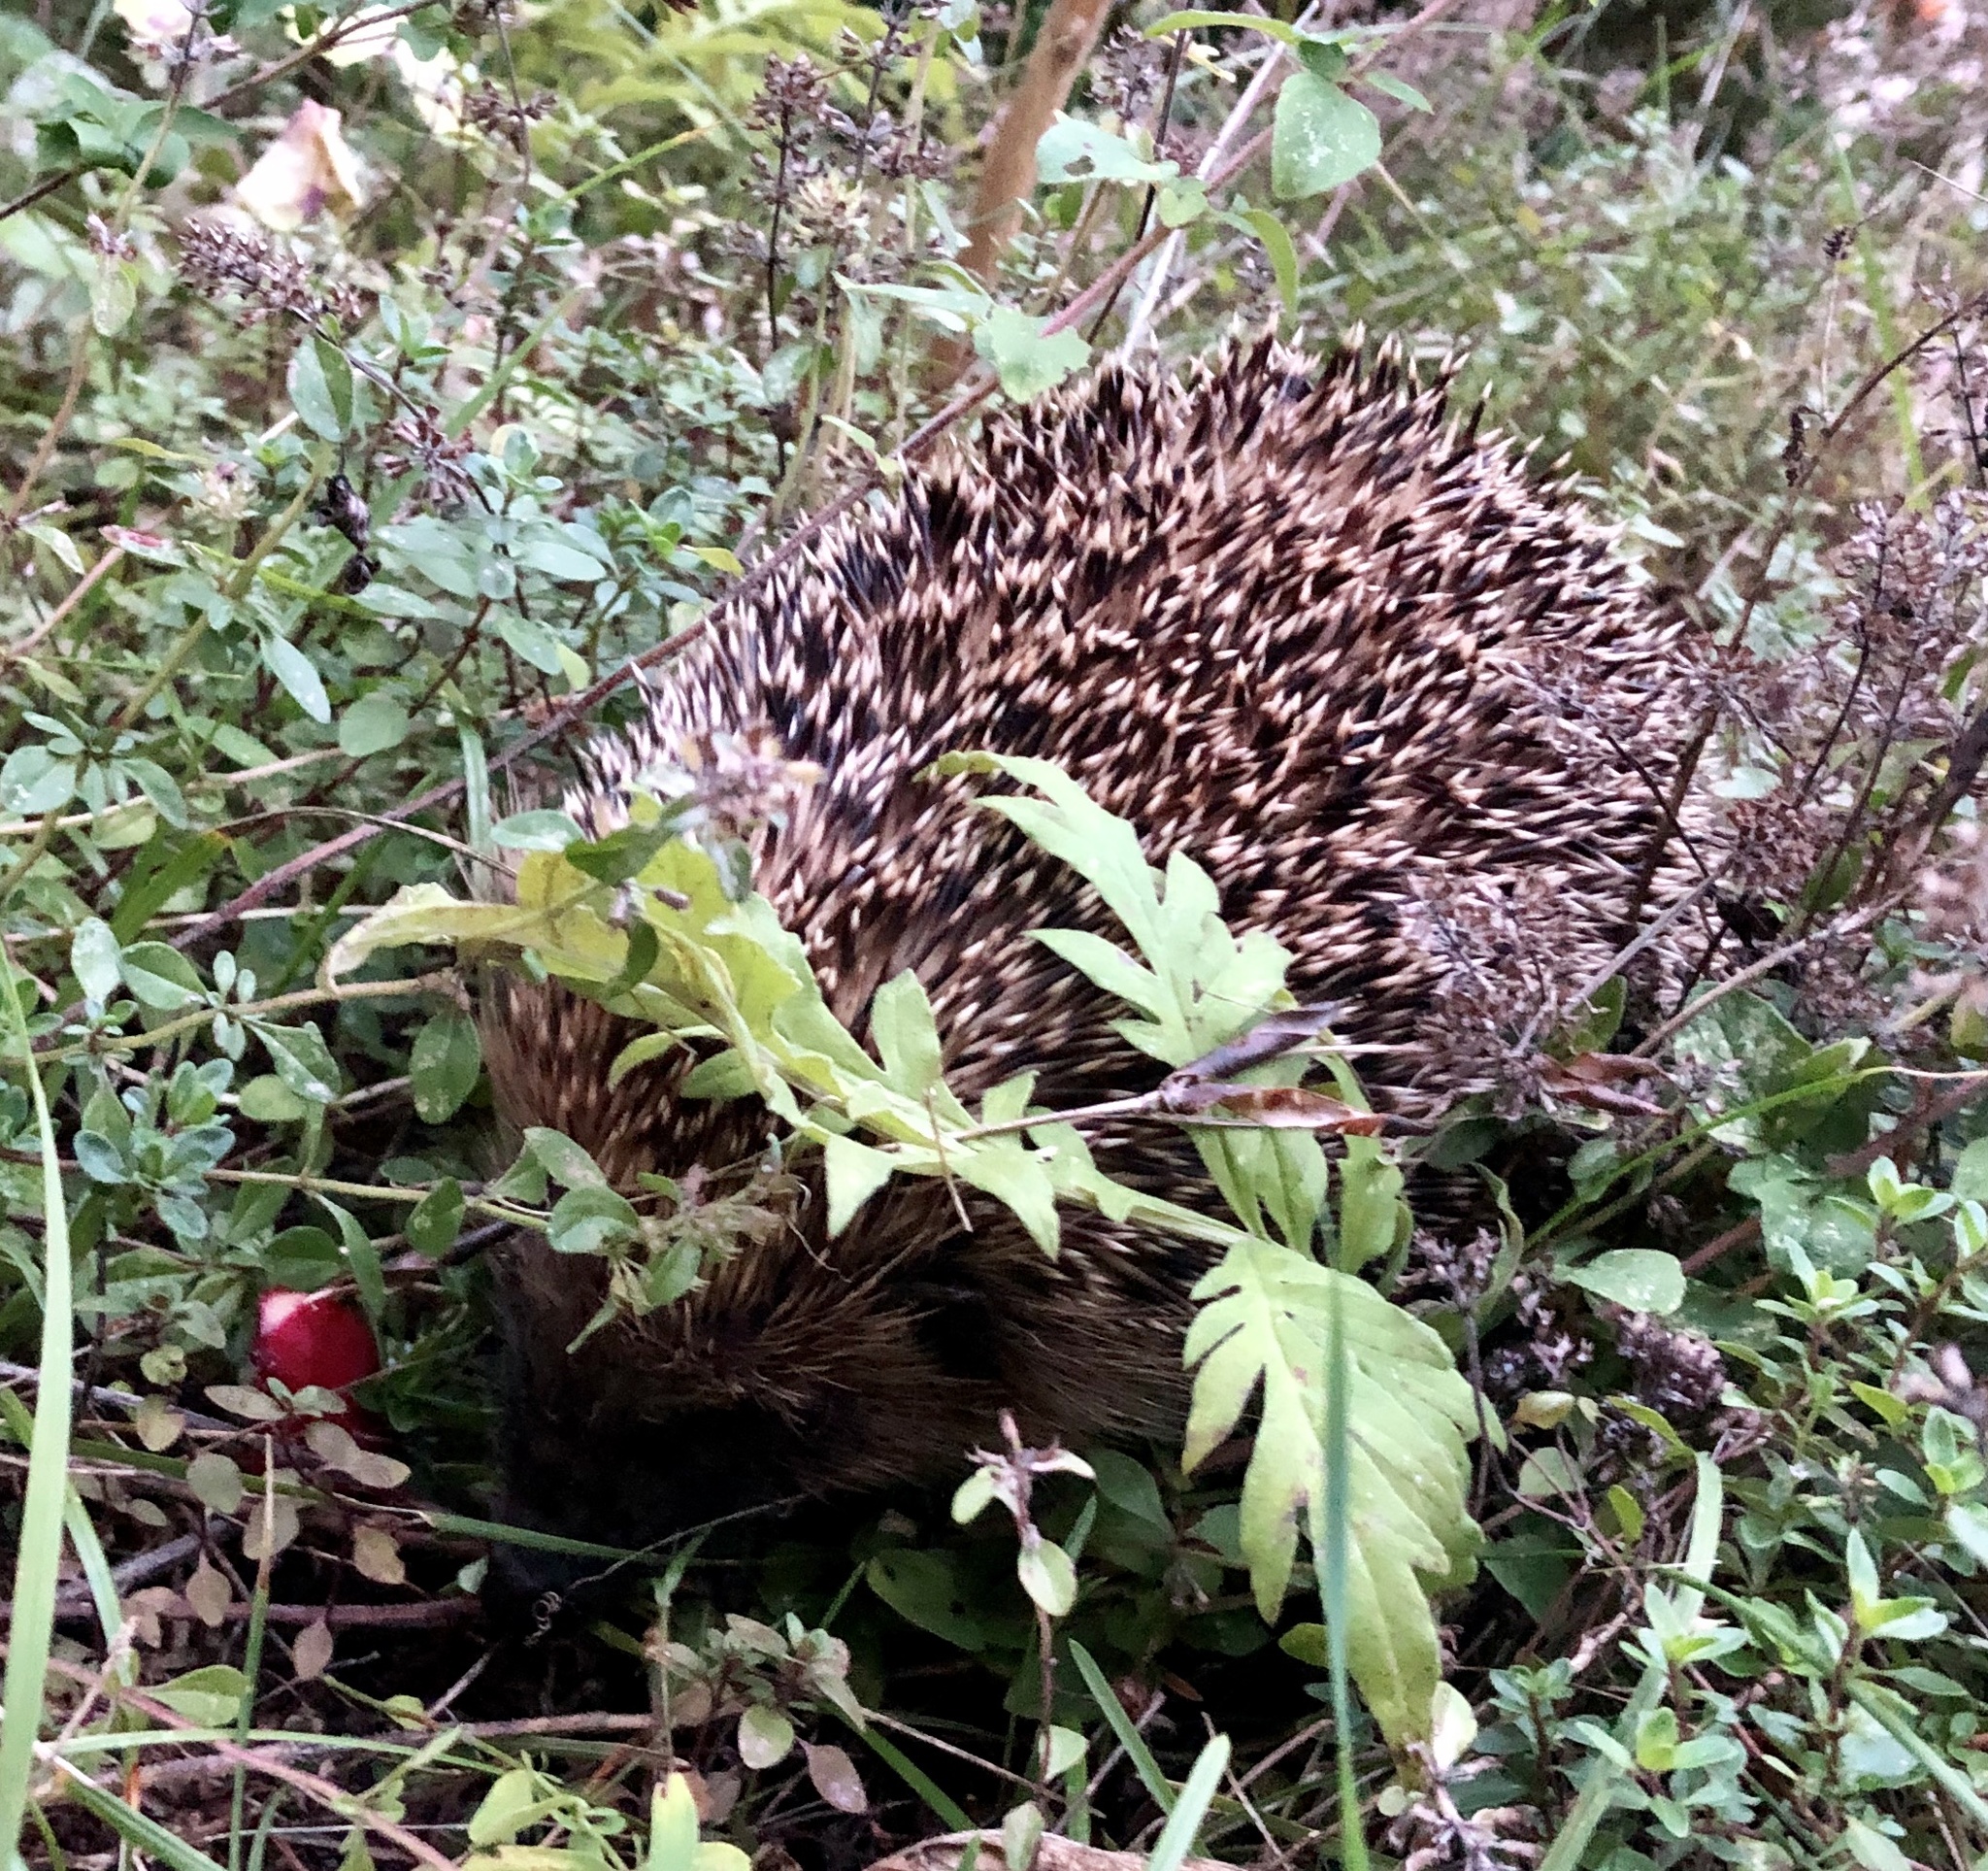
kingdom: Animalia
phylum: Chordata
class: Mammalia
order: Erinaceomorpha
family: Erinaceidae
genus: Erinaceus
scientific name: Erinaceus europaeus
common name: West european hedgehog
